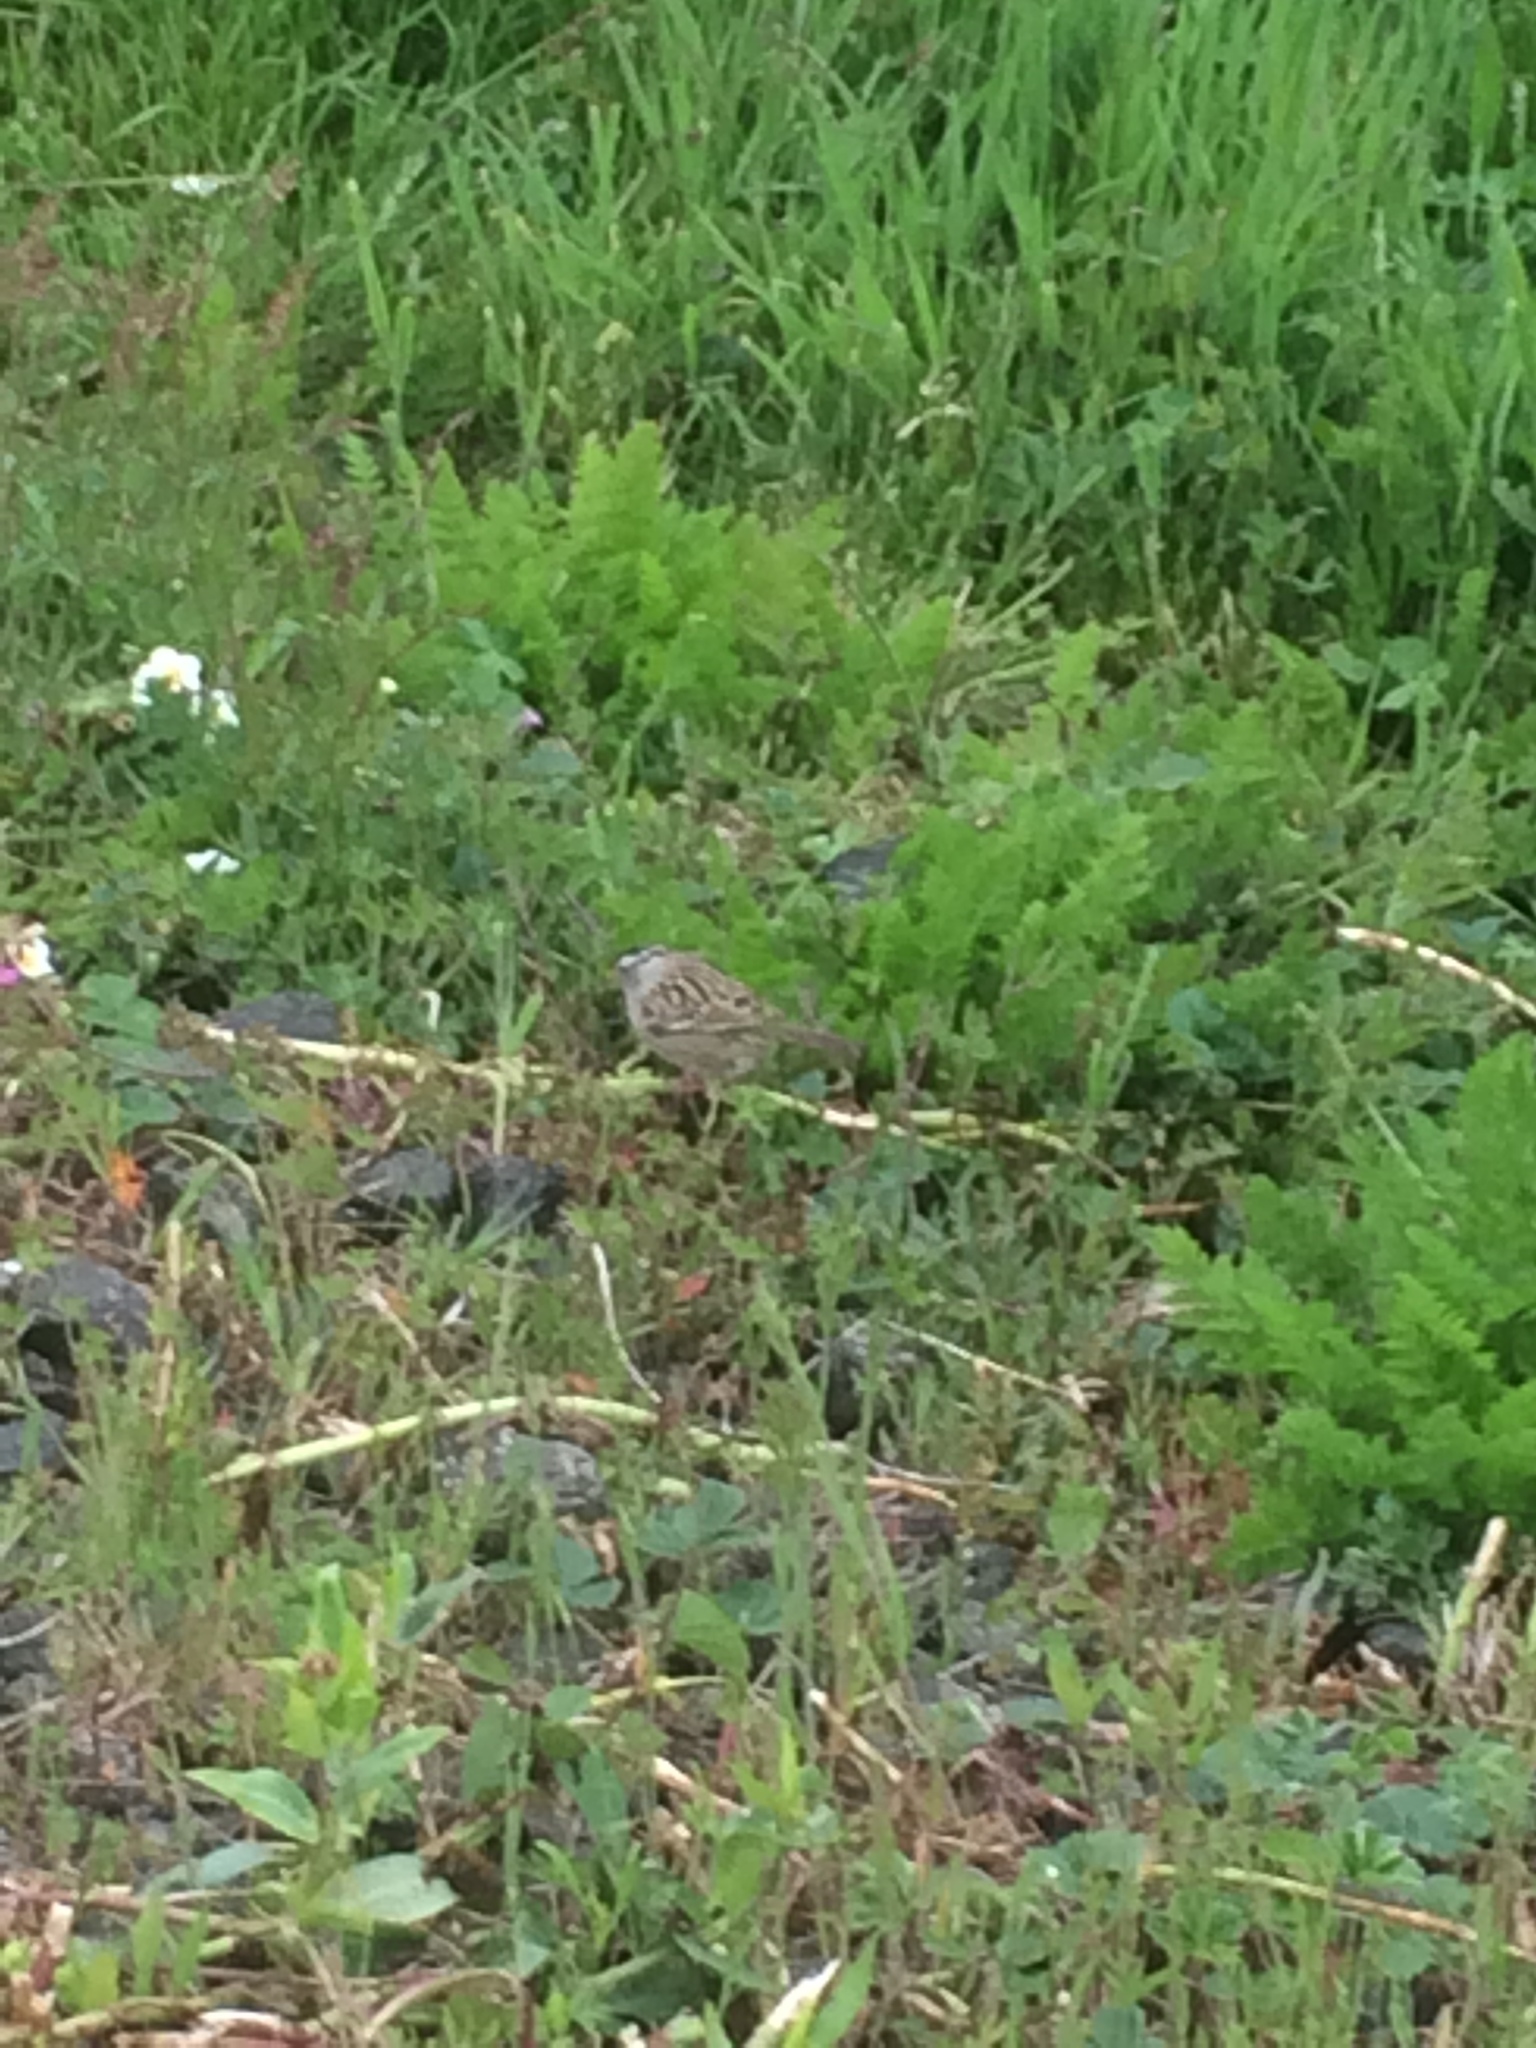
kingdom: Animalia
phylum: Chordata
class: Aves
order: Passeriformes
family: Passerellidae
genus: Zonotrichia
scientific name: Zonotrichia leucophrys
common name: White-crowned sparrow
